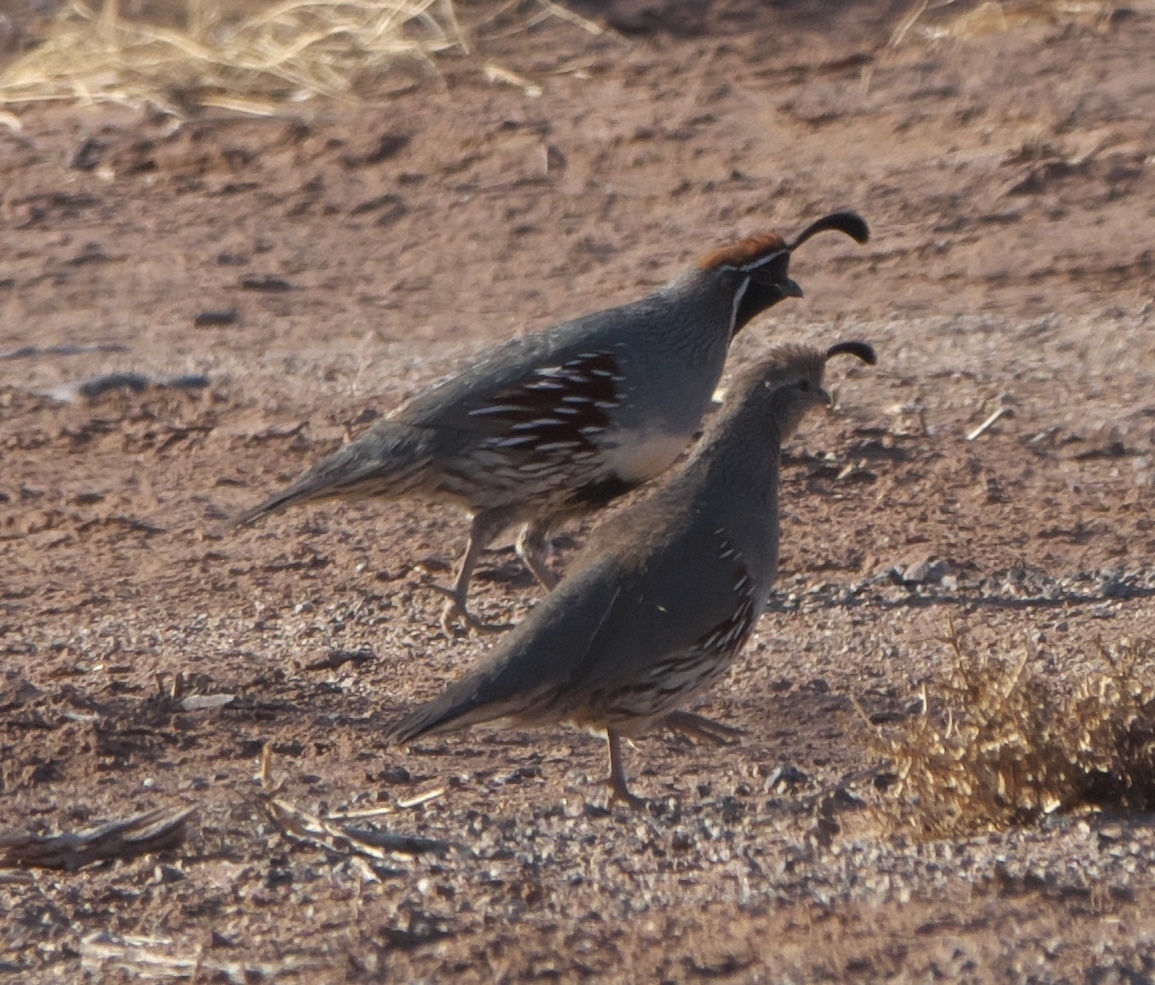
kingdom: Animalia
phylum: Chordata
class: Aves
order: Galliformes
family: Odontophoridae
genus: Callipepla
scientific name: Callipepla gambelii
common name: Gambel's quail
